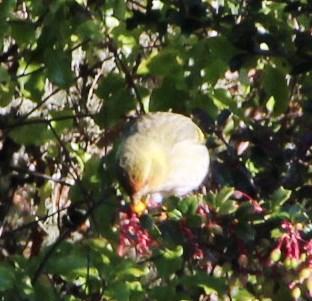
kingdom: Animalia
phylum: Chordata
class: Aves
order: Passeriformes
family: Fringillidae
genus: Spinus
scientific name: Spinus barbatus
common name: Black-chinned siskin
